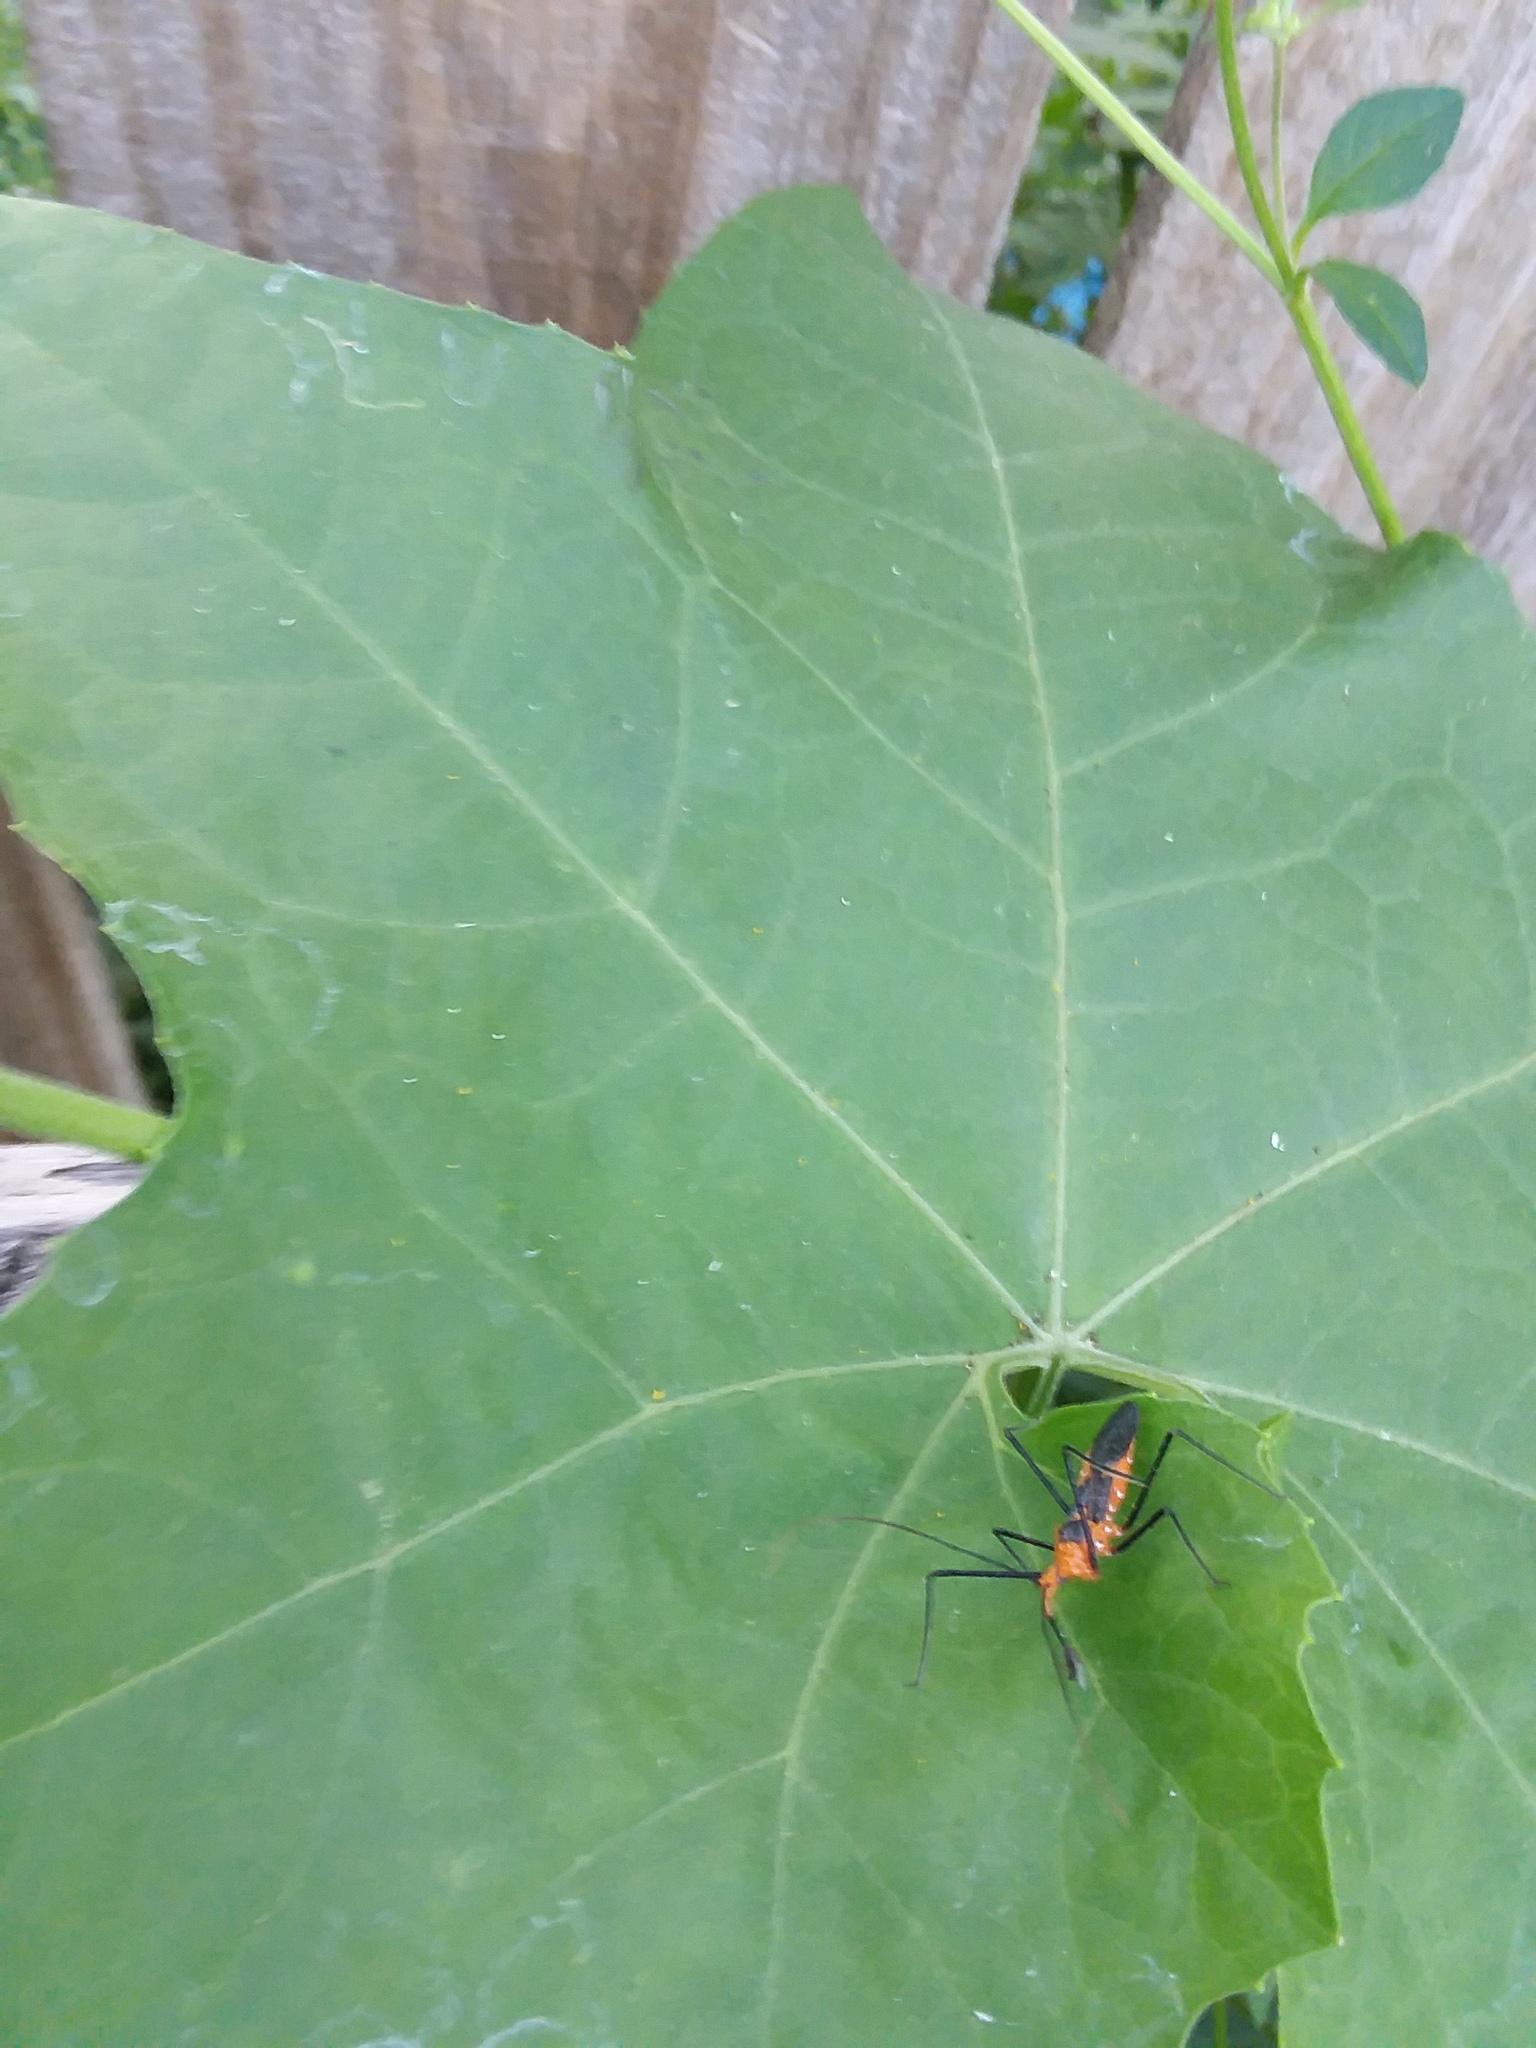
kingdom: Animalia
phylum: Arthropoda
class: Insecta
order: Hemiptera
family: Reduviidae
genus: Zelus
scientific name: Zelus longipes
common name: Milkweed assassin bug
